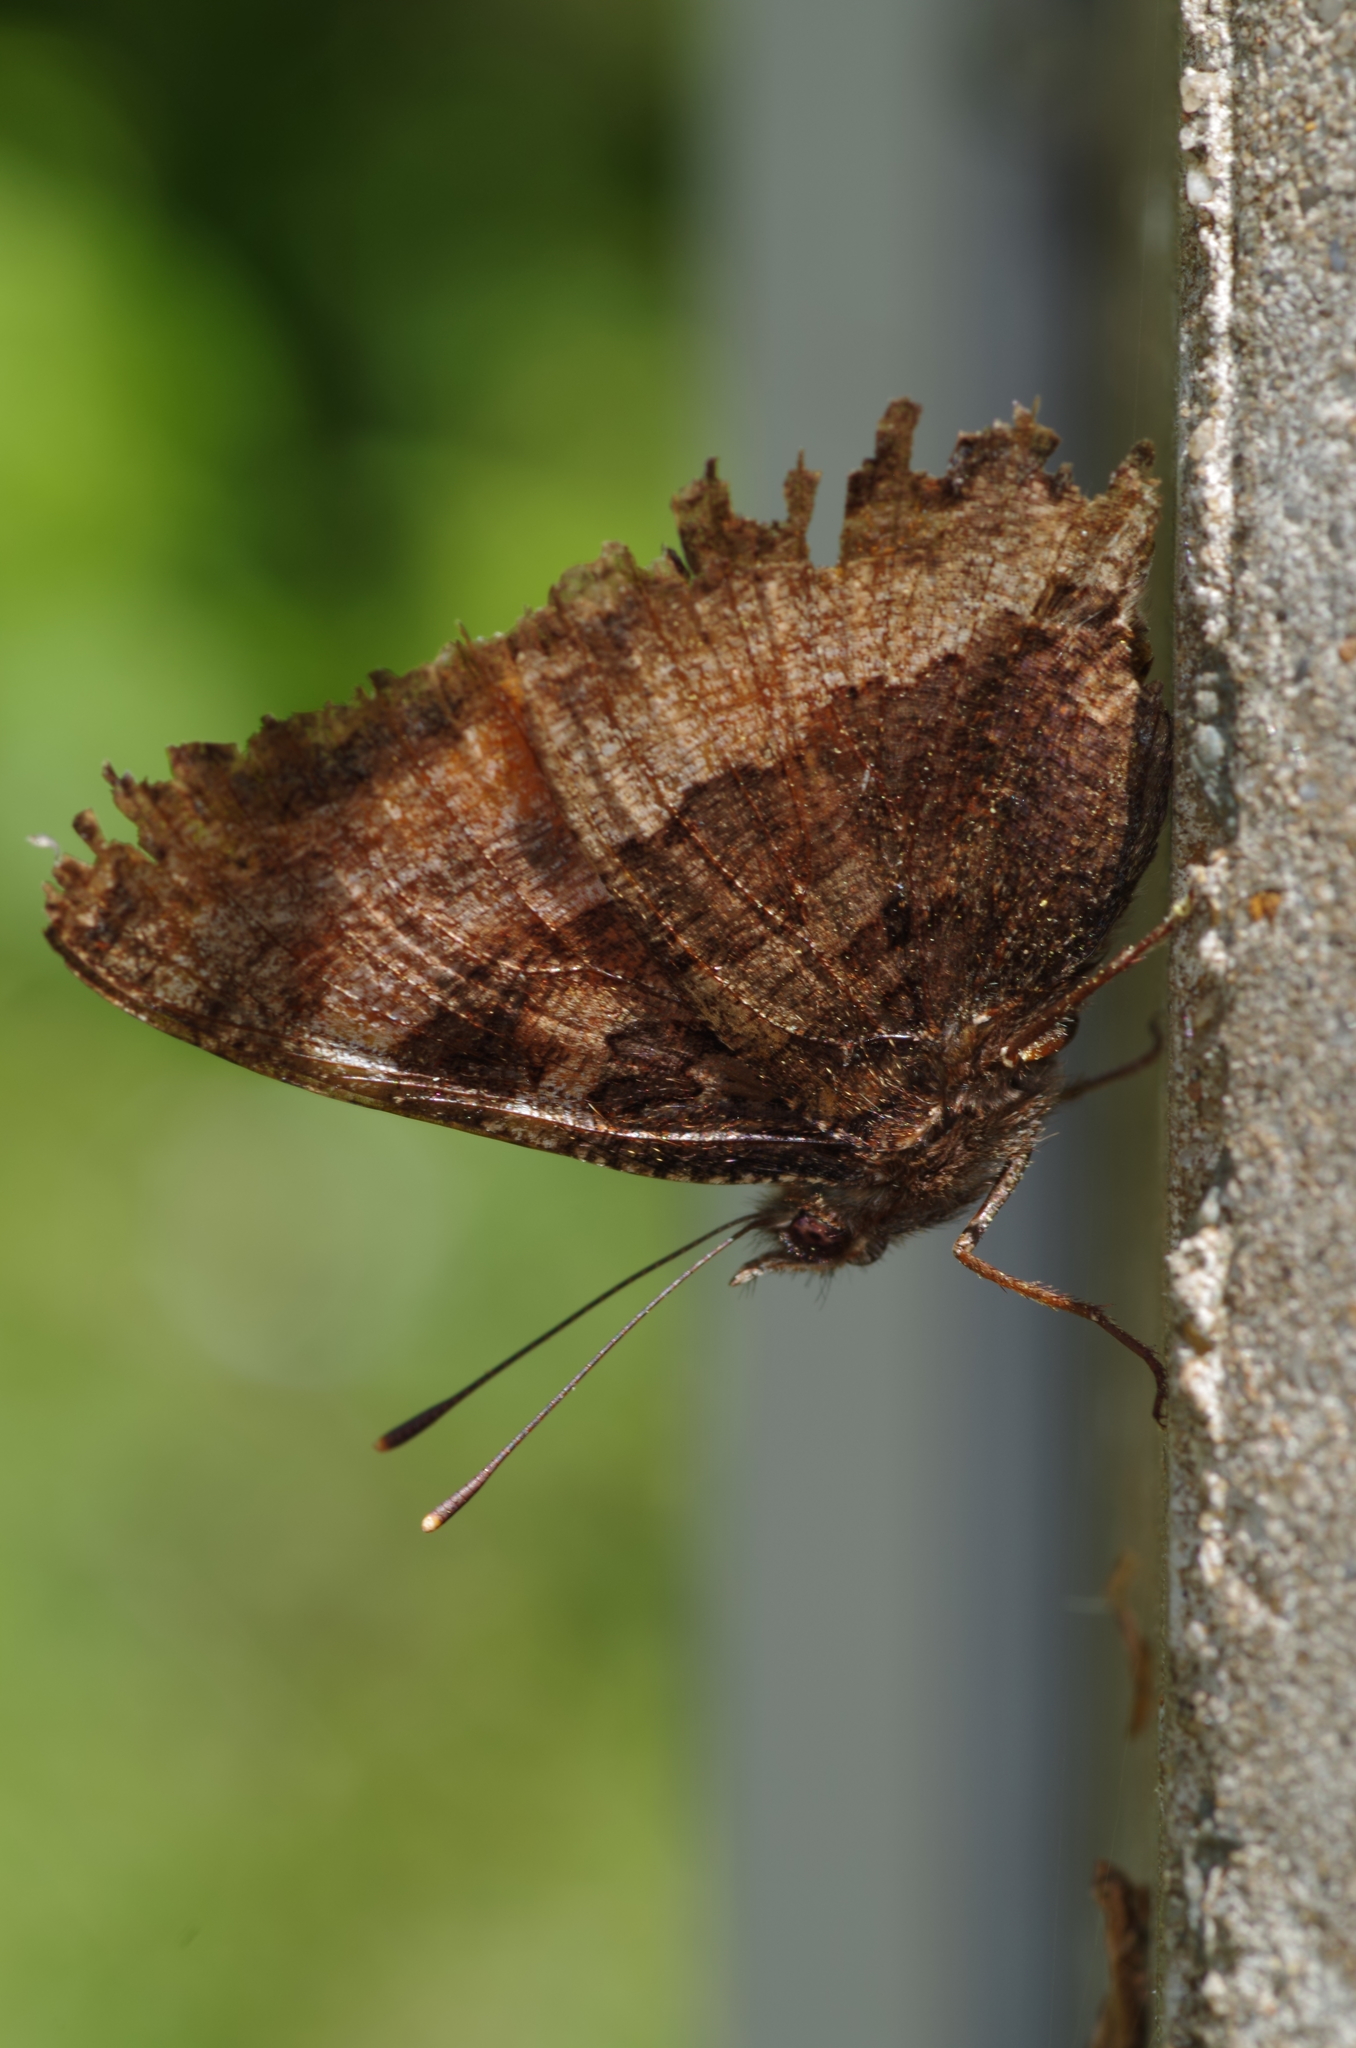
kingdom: Animalia
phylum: Arthropoda
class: Insecta
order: Lepidoptera
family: Nymphalidae
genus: Nymphalis
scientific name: Nymphalis polychloros
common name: Large tortoiseshell
